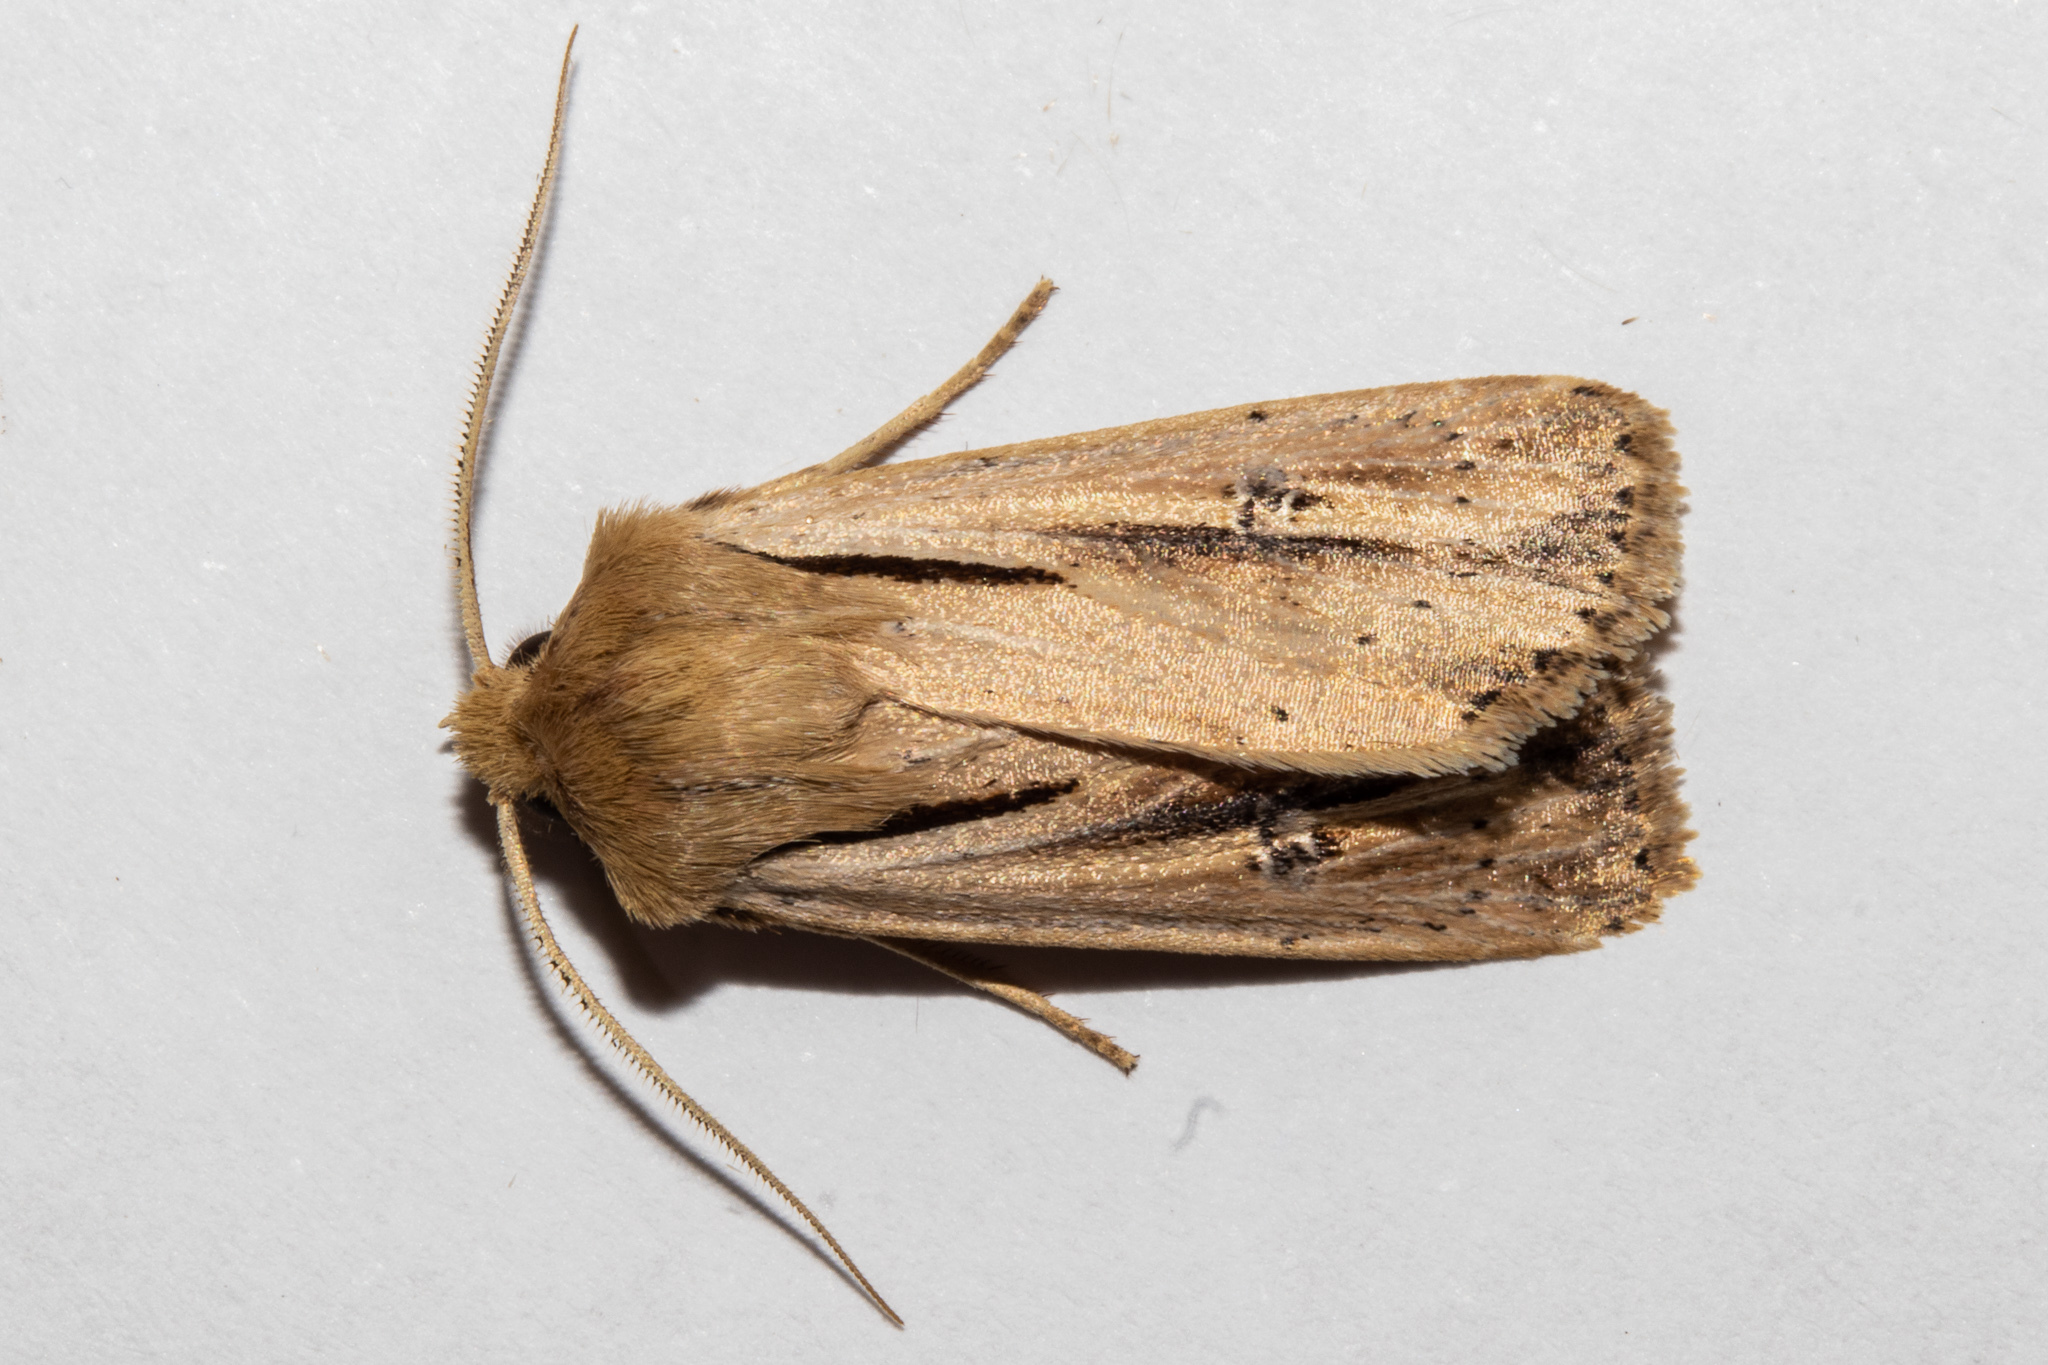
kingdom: Animalia
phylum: Arthropoda
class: Insecta
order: Lepidoptera
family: Noctuidae
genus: Ichneutica
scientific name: Ichneutica propria
